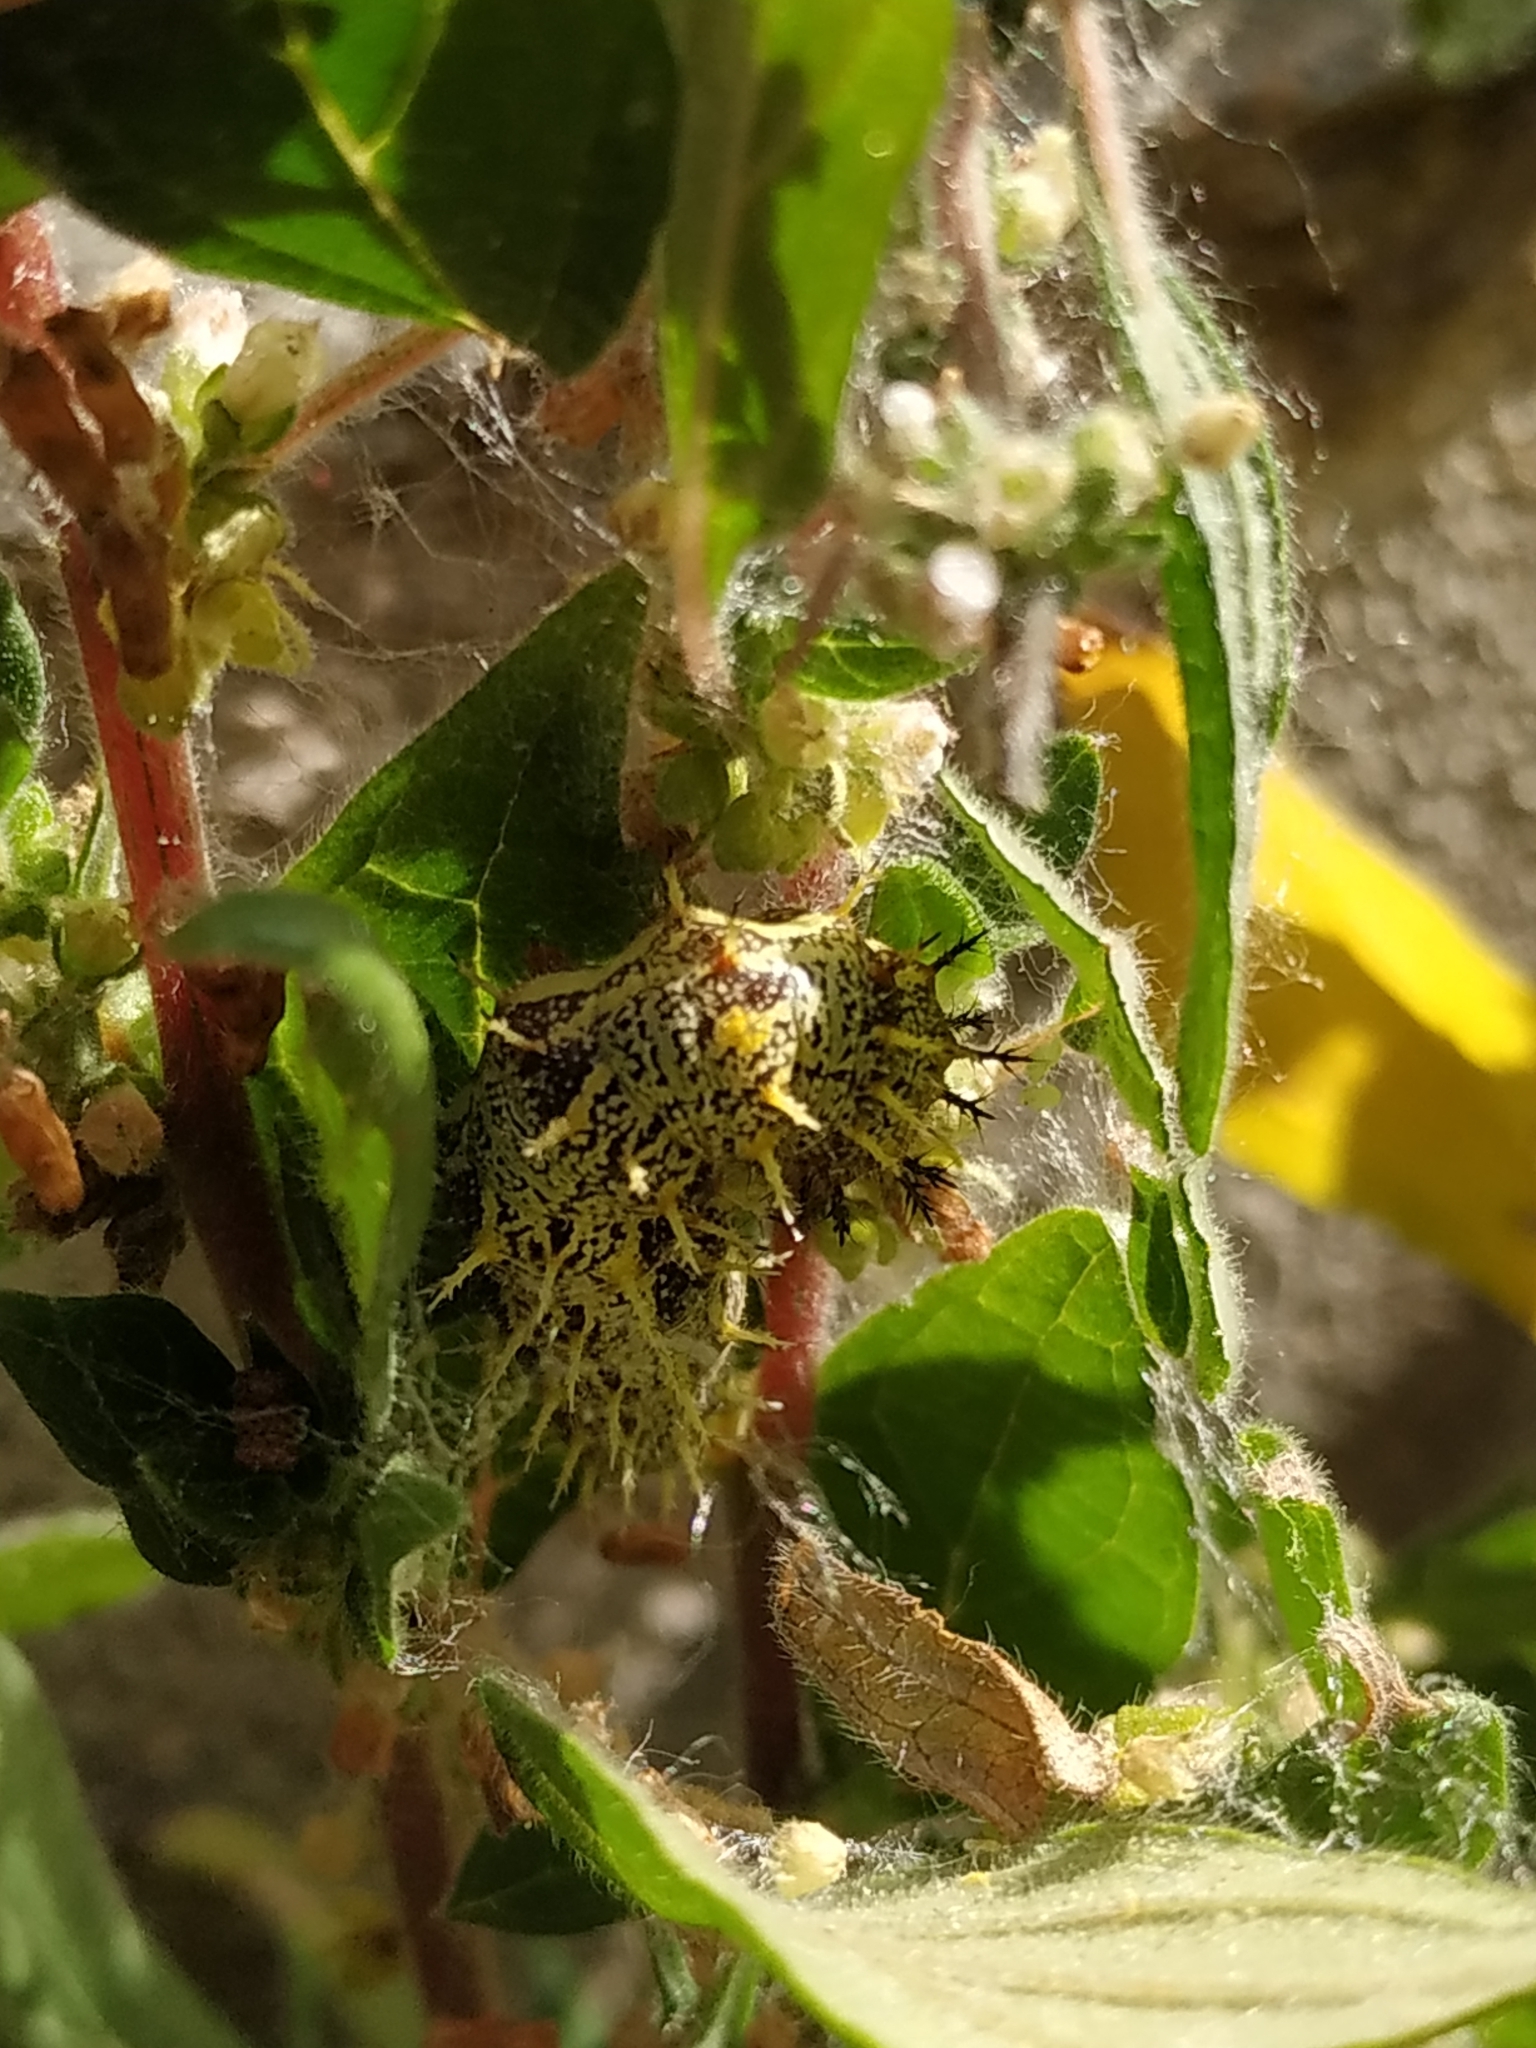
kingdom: Animalia
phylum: Arthropoda
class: Insecta
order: Lepidoptera
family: Nymphalidae
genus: Vanessa
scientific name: Vanessa atalanta
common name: Red admiral
